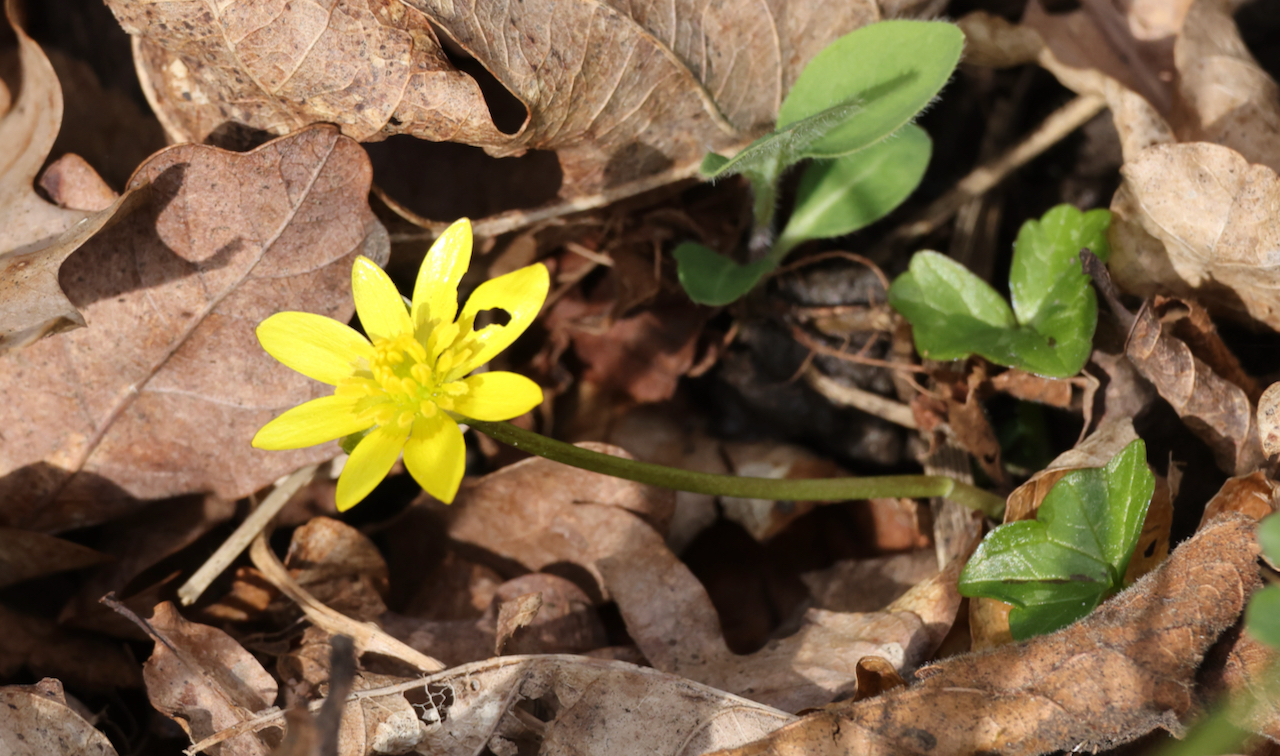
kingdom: Plantae
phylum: Tracheophyta
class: Magnoliopsida
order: Ranunculales
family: Ranunculaceae
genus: Ficaria
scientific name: Ficaria verna
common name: Lesser celandine
